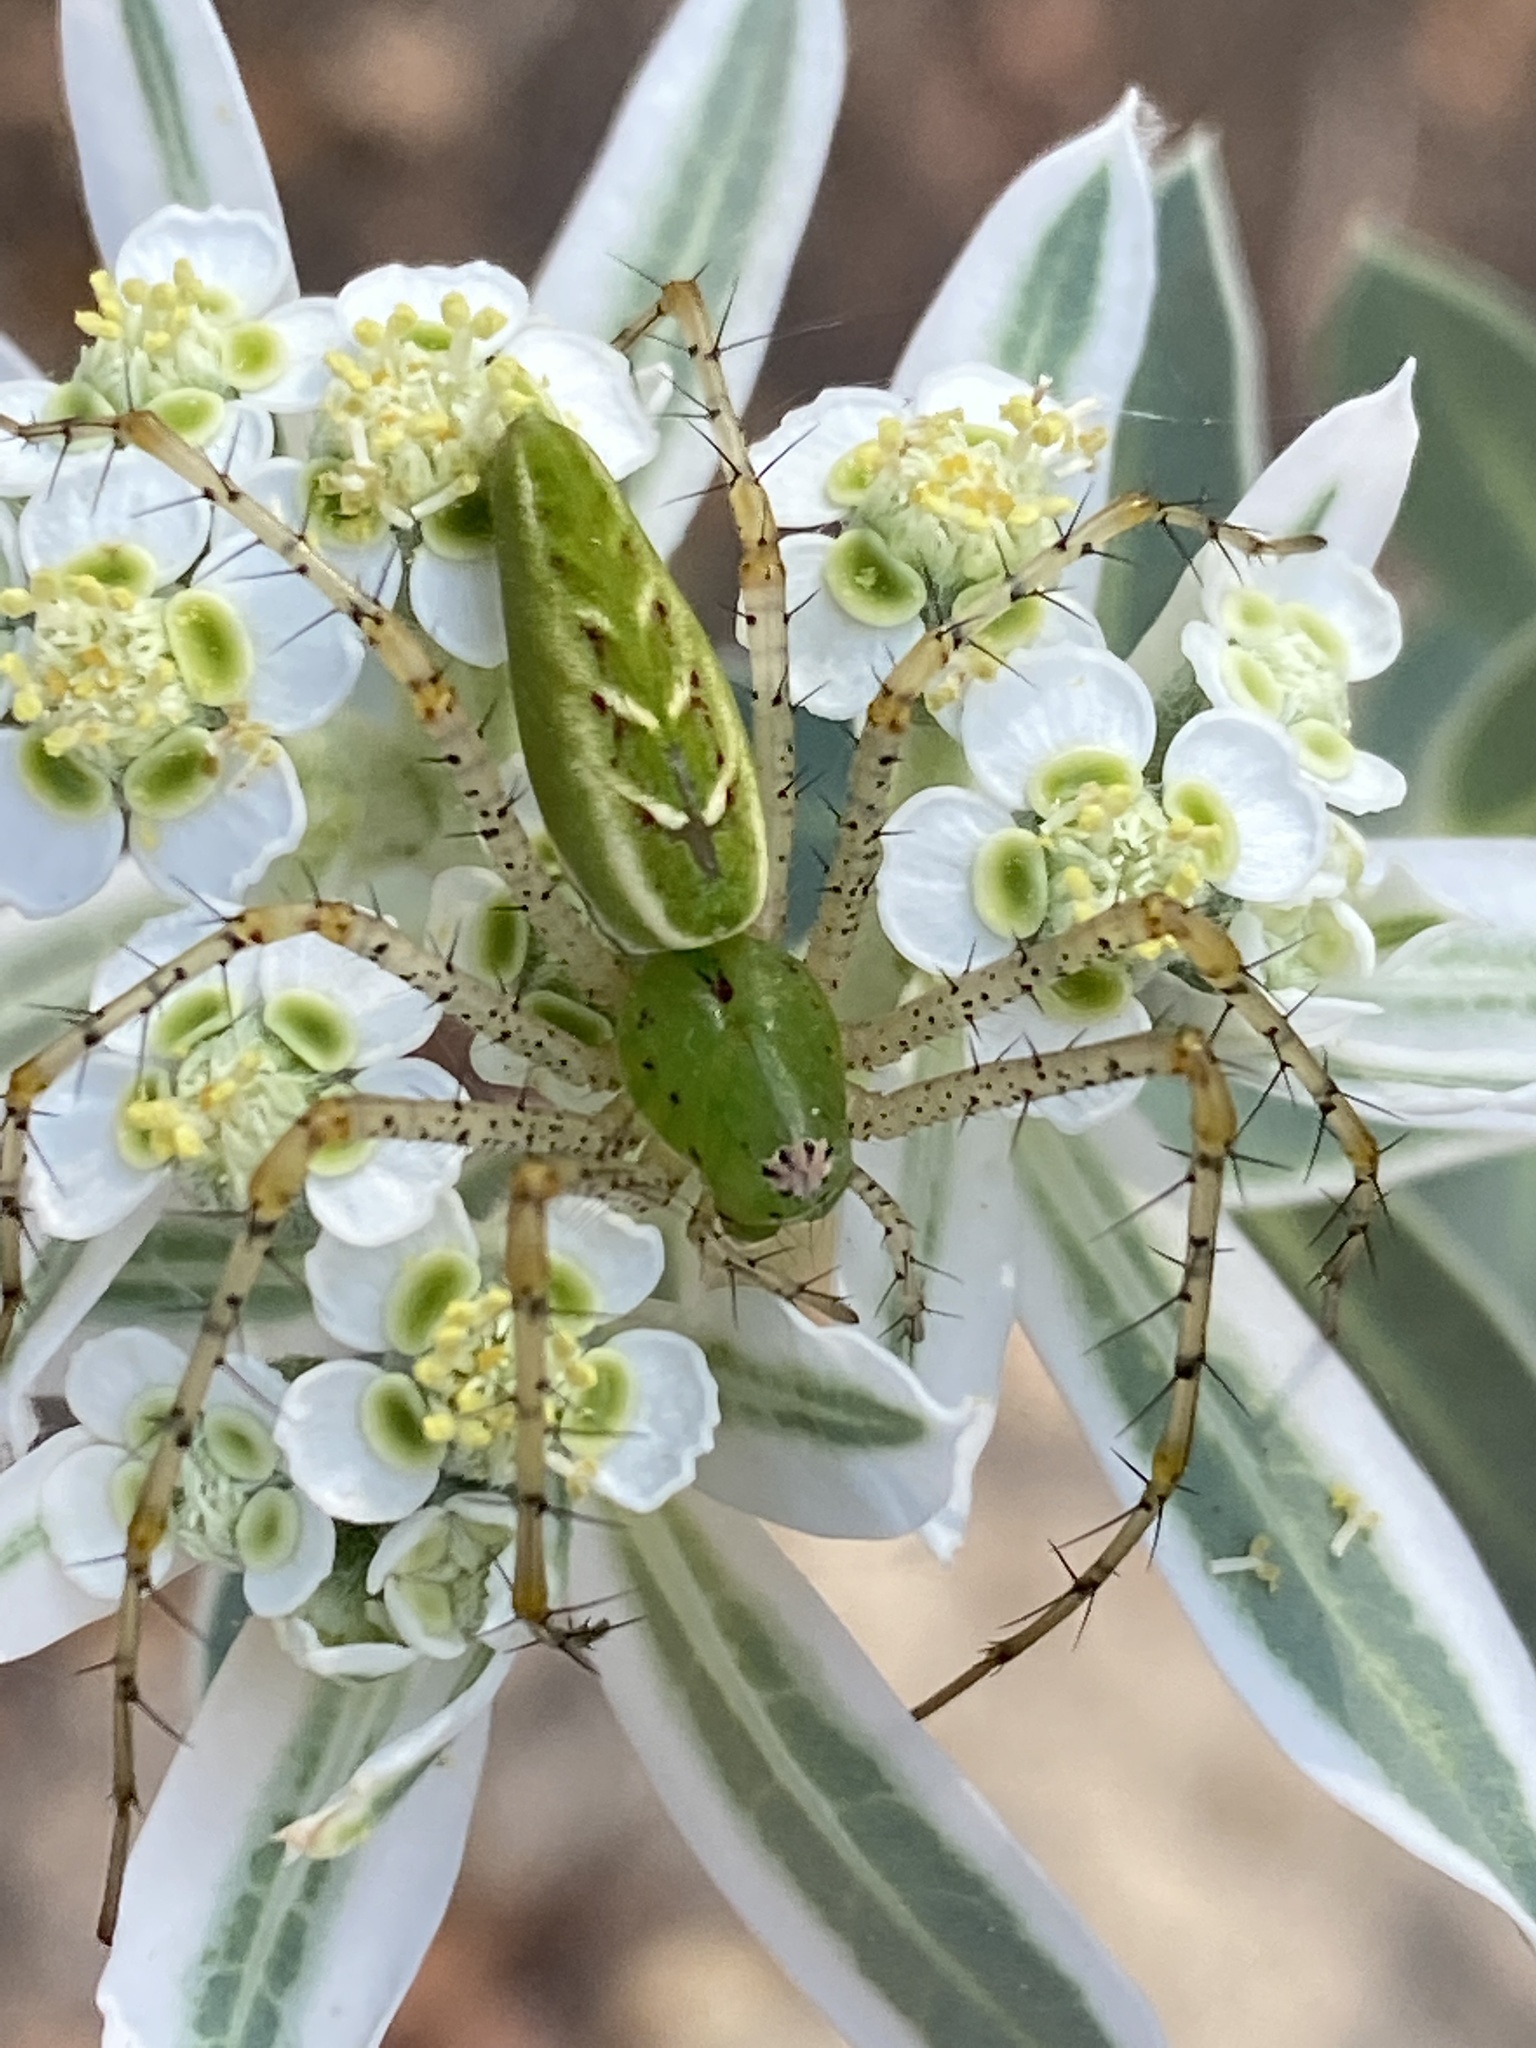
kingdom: Animalia
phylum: Arthropoda
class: Arachnida
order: Araneae
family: Oxyopidae
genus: Peucetia
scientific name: Peucetia viridans
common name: Lynx spiders
